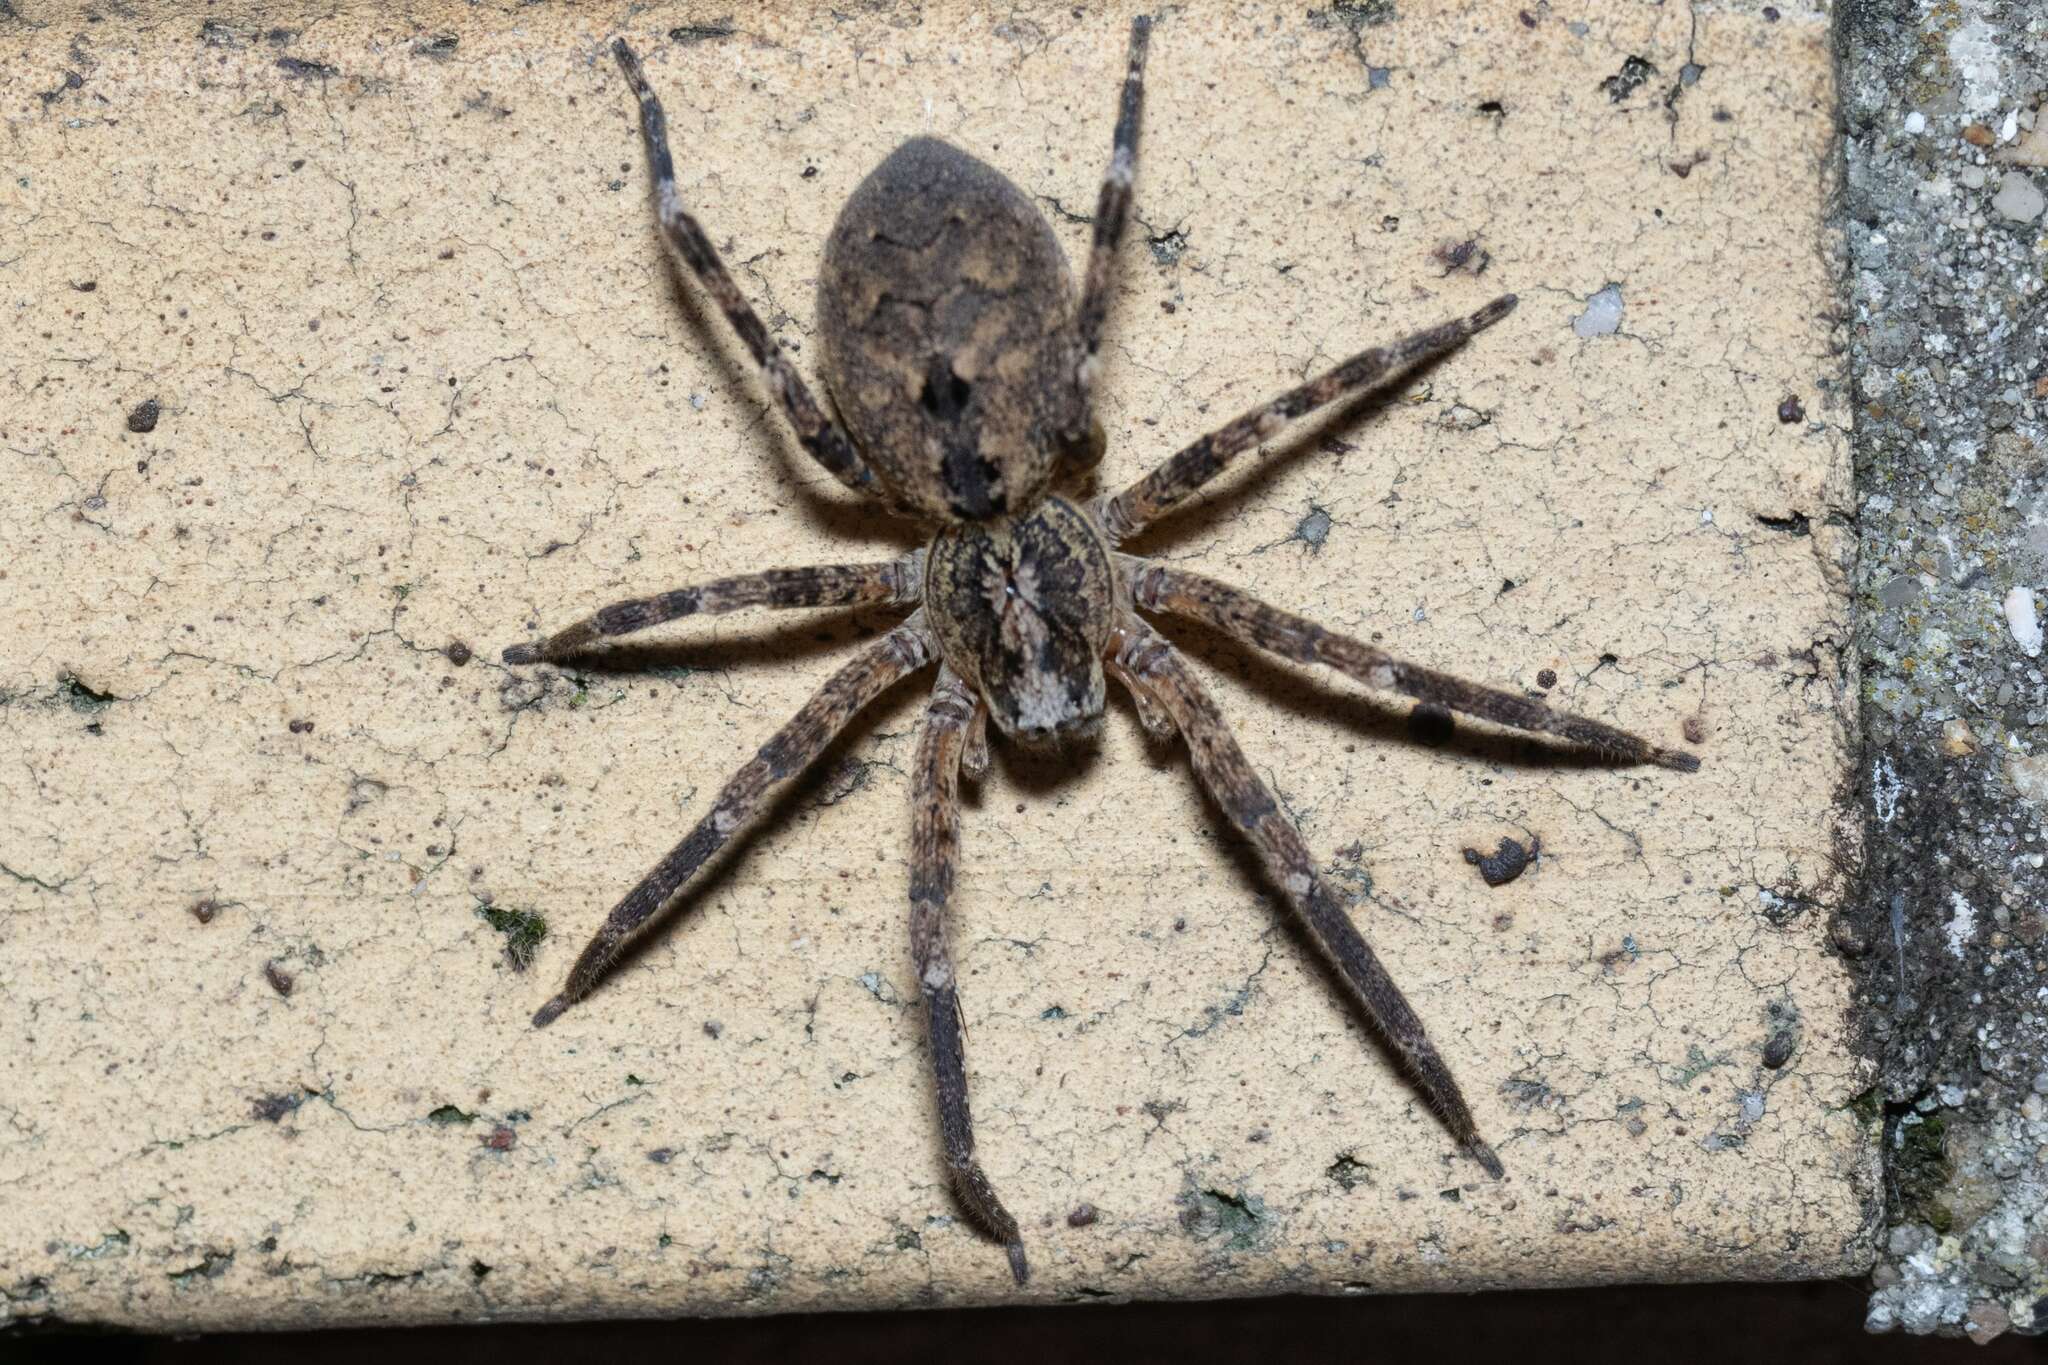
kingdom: Animalia
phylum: Arthropoda
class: Arachnida
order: Araneae
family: Zoropsidae
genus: Zoropsis
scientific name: Zoropsis spinimana
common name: Zoropsid spider
